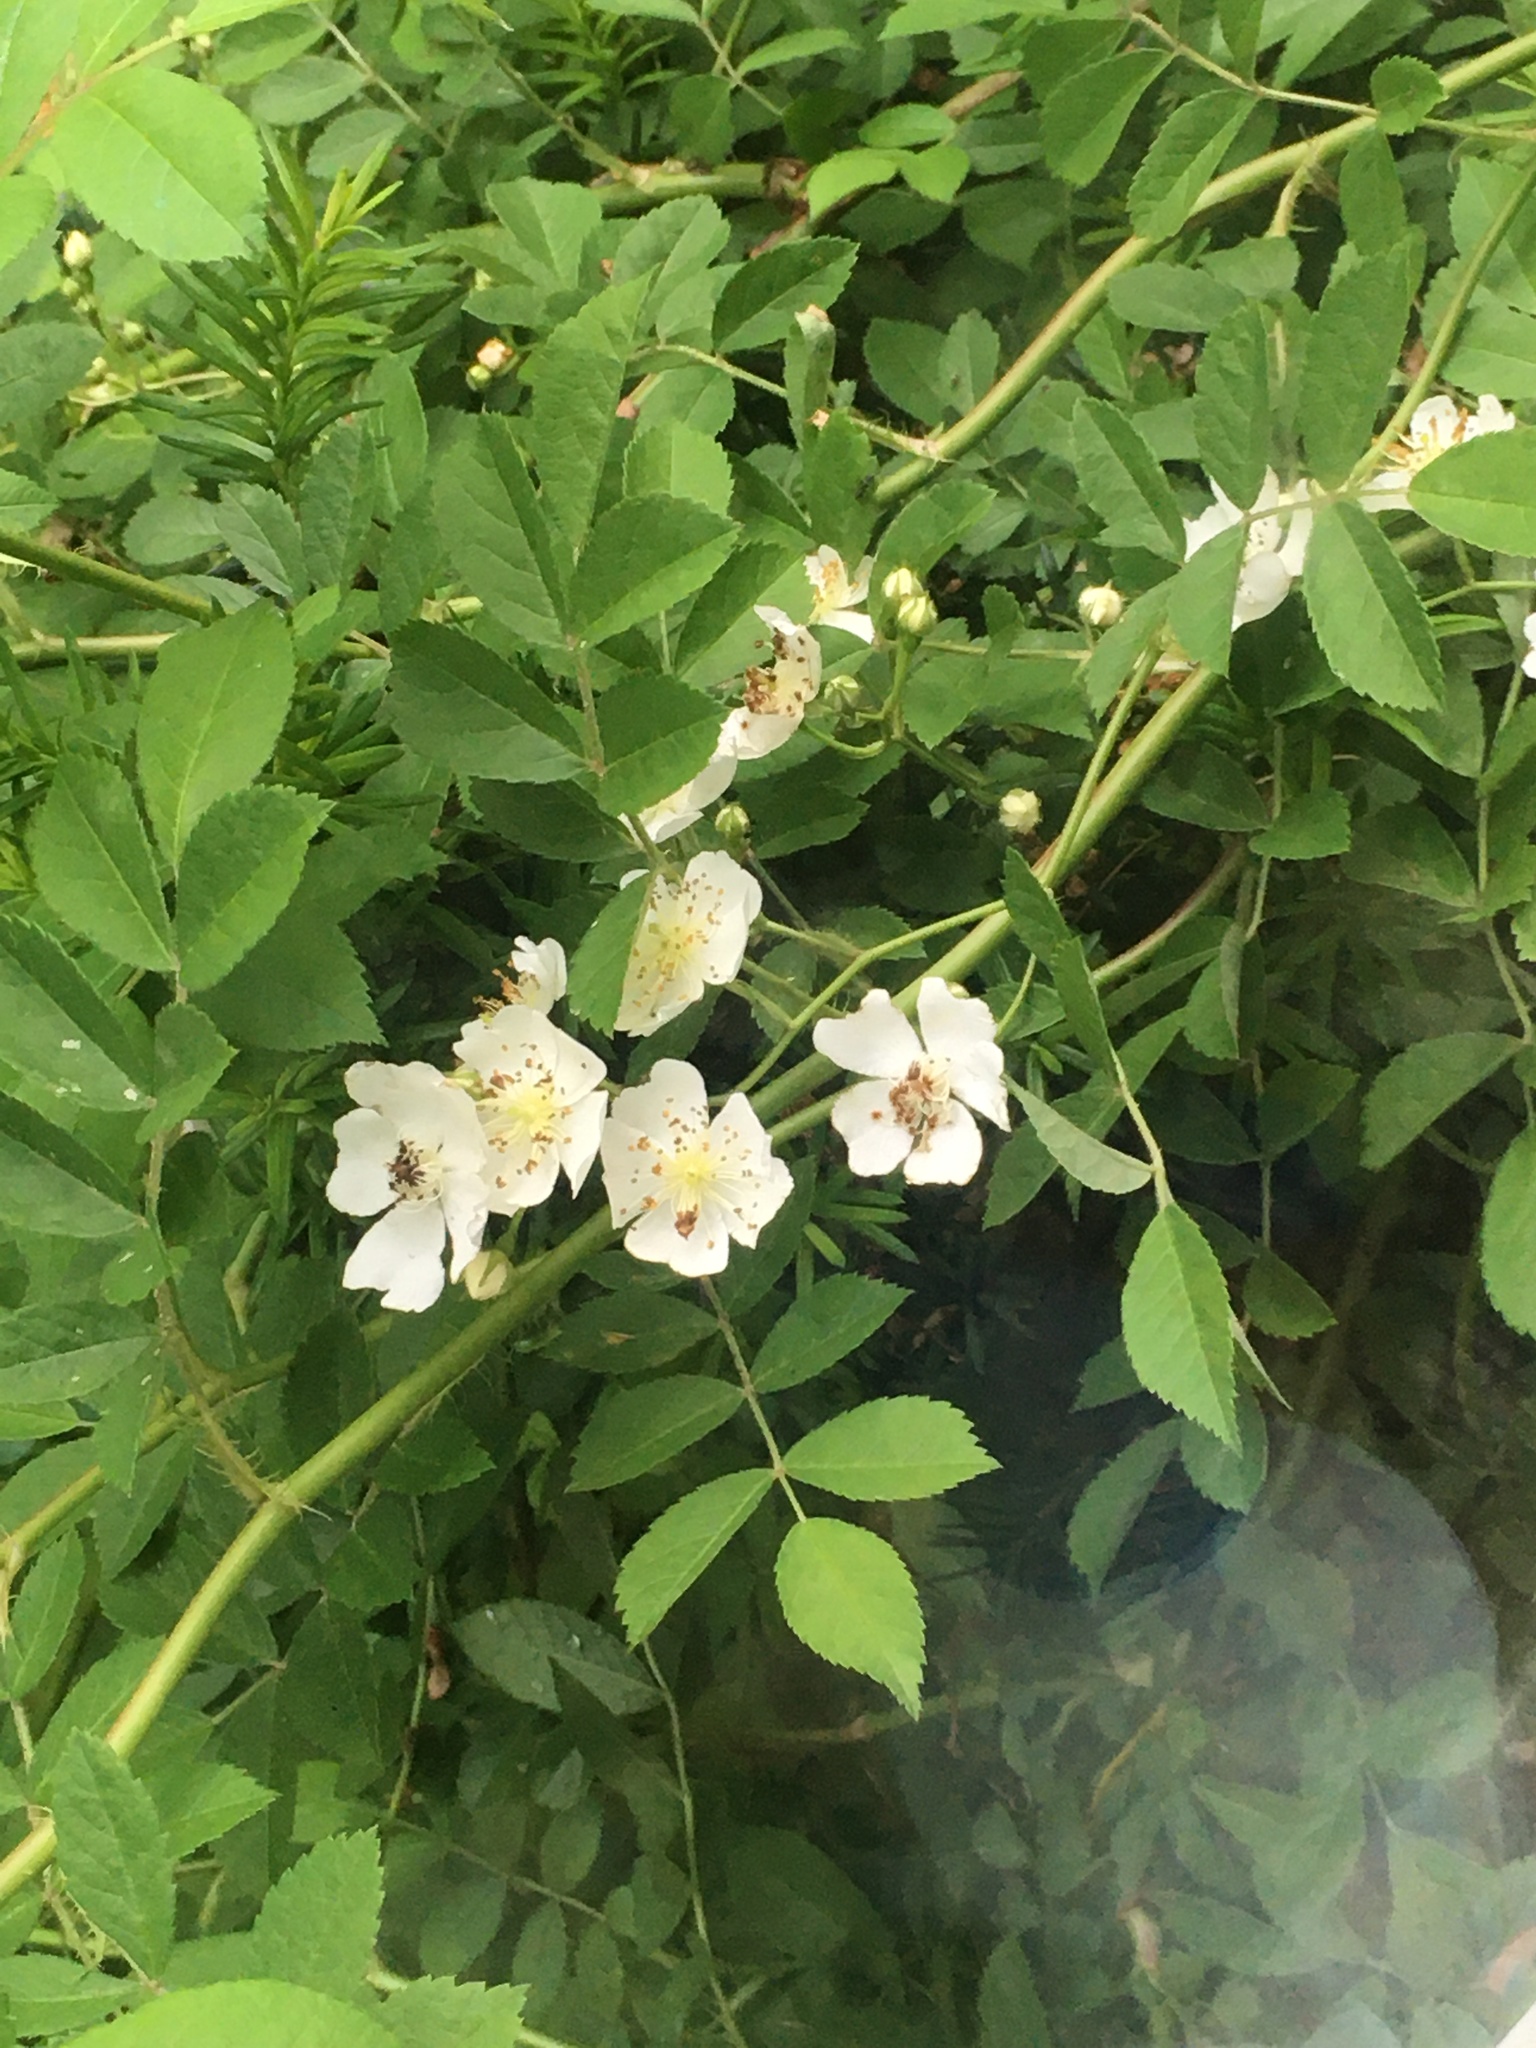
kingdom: Plantae
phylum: Tracheophyta
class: Magnoliopsida
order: Rosales
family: Rosaceae
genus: Rosa
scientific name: Rosa multiflora
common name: Multiflora rose
